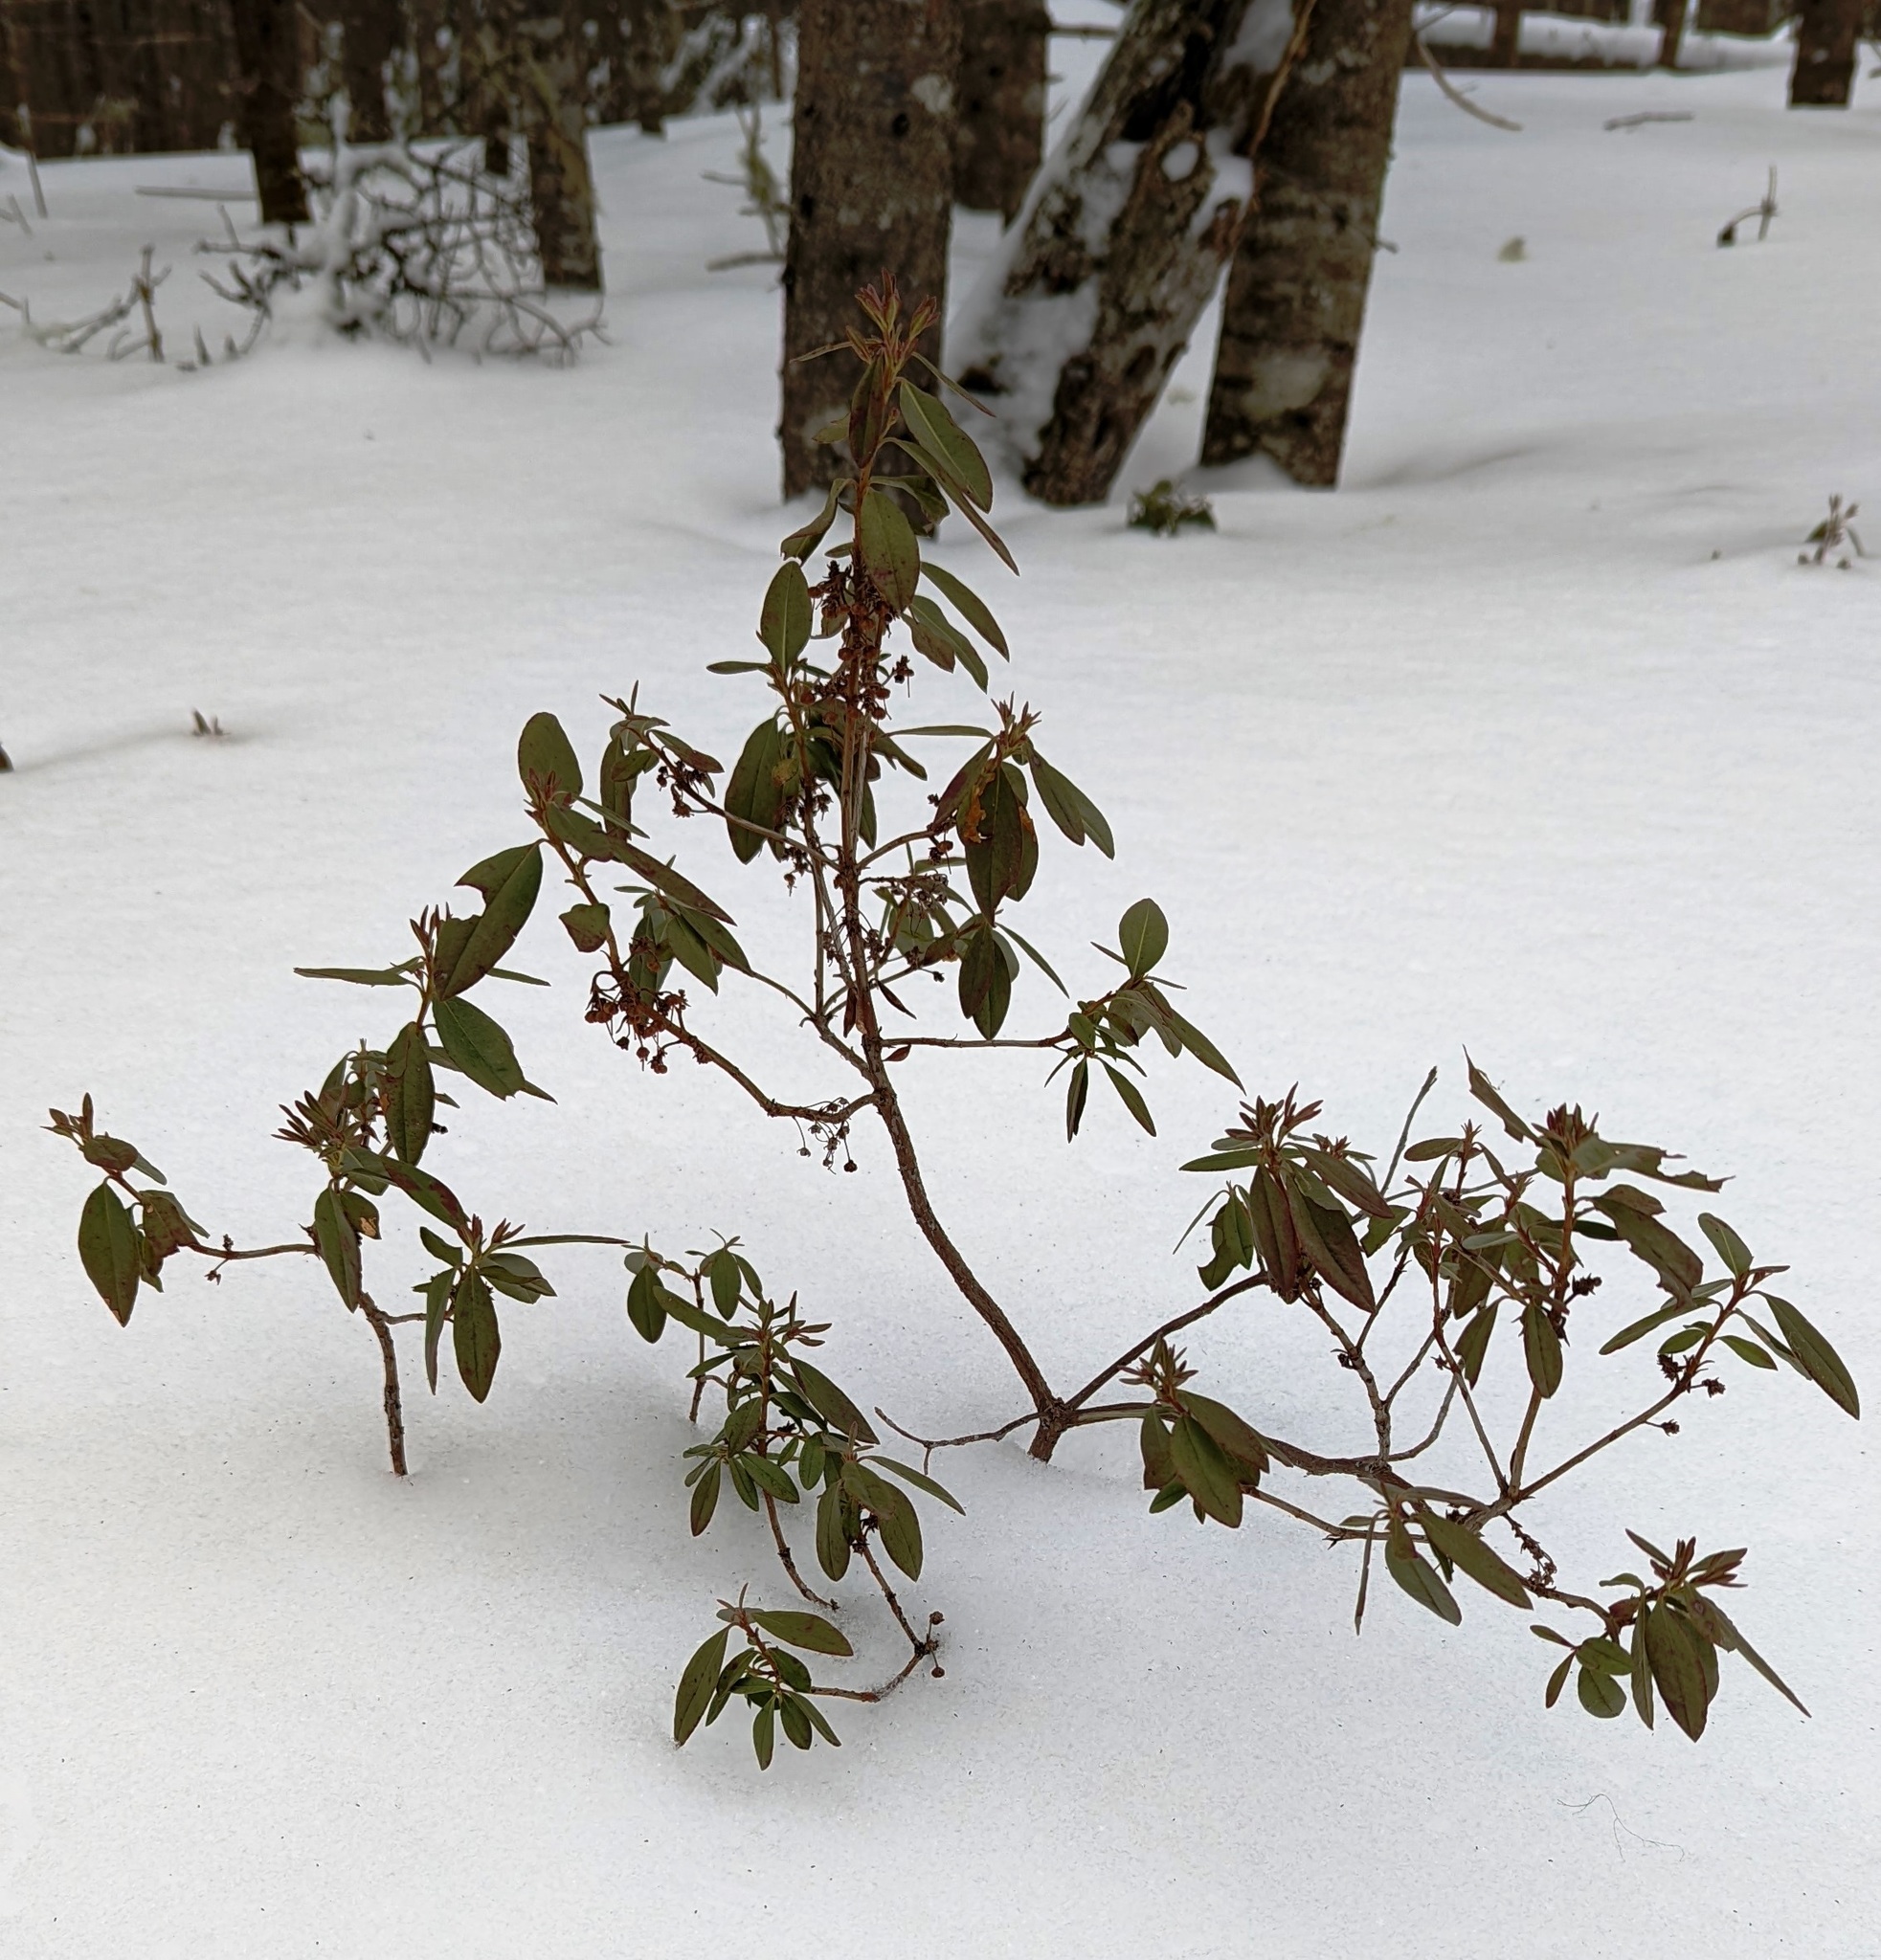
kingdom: Plantae
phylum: Tracheophyta
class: Magnoliopsida
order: Ericales
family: Ericaceae
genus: Kalmia
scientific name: Kalmia angustifolia
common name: Sheep-laurel
